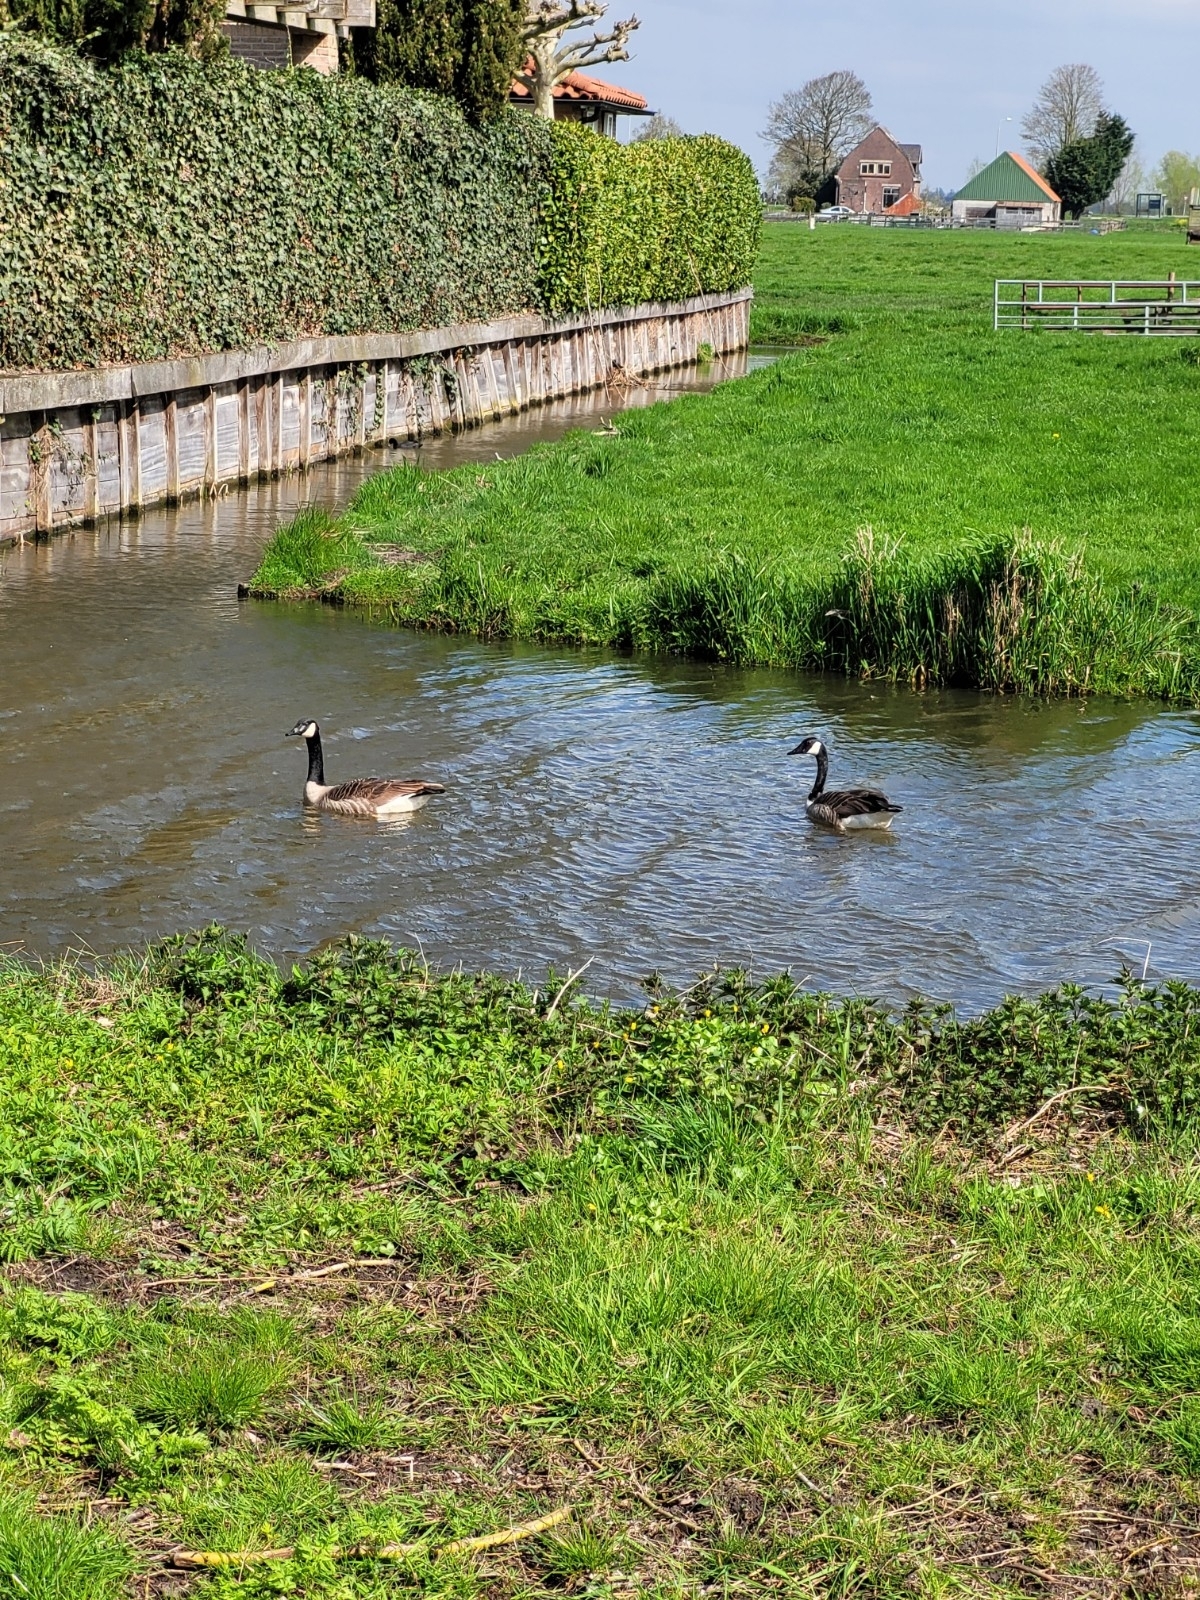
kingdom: Animalia
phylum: Chordata
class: Aves
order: Anseriformes
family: Anatidae
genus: Branta
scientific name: Branta canadensis
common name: Canada goose
